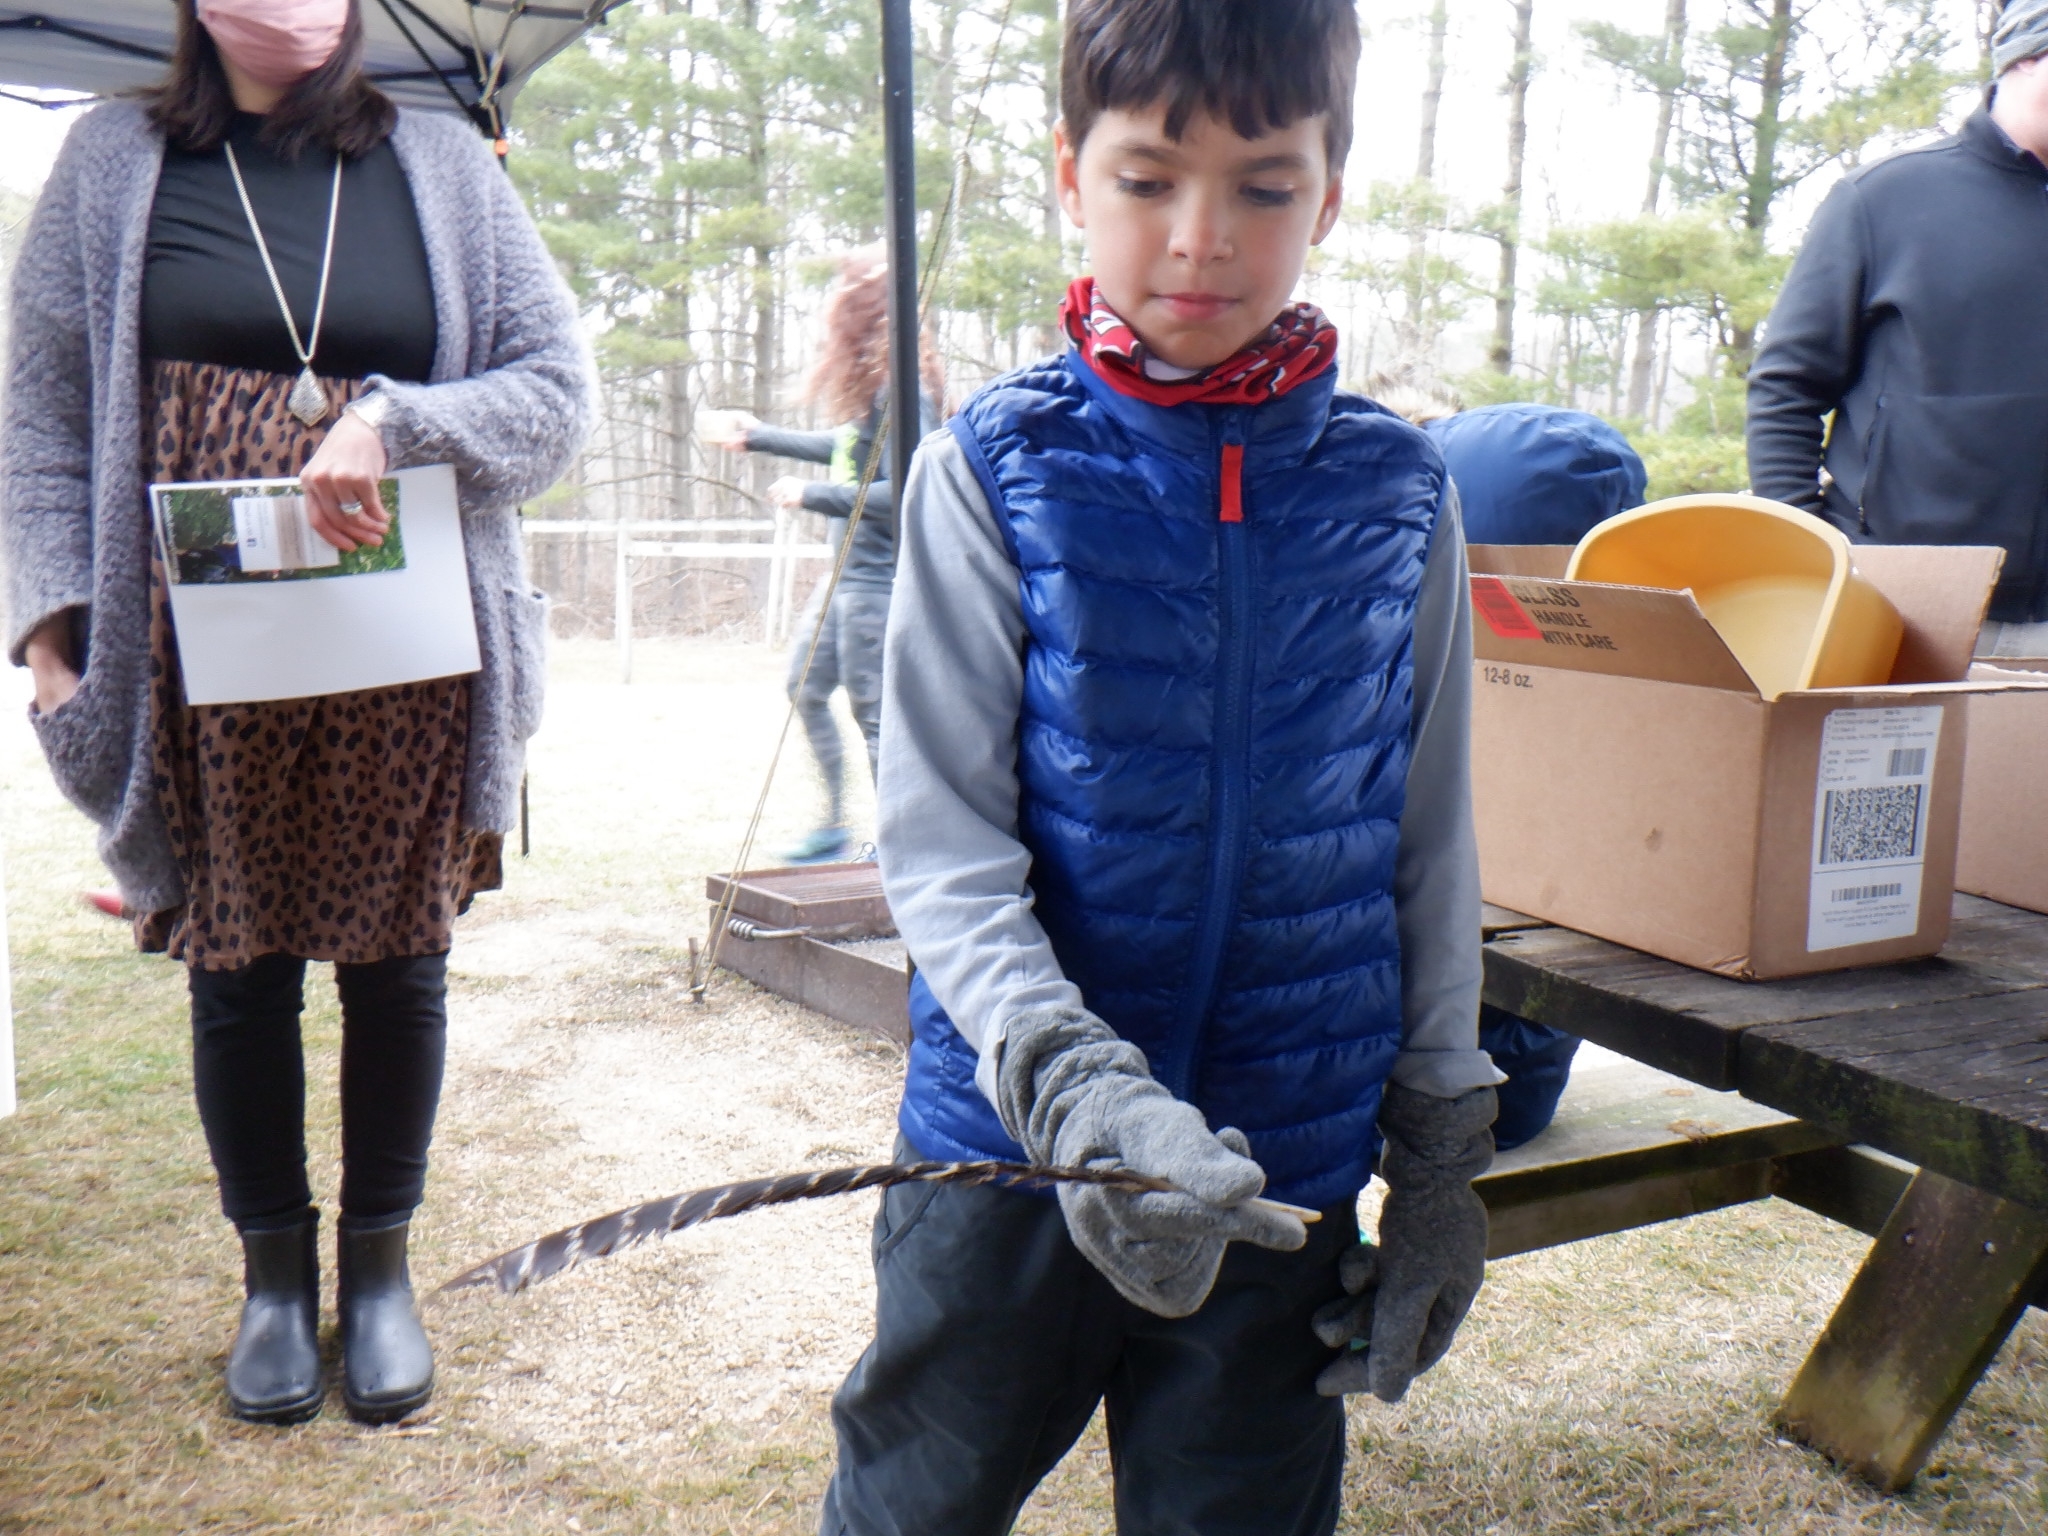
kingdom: Animalia
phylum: Chordata
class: Aves
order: Galliformes
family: Phasianidae
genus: Meleagris
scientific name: Meleagris gallopavo
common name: Wild turkey
